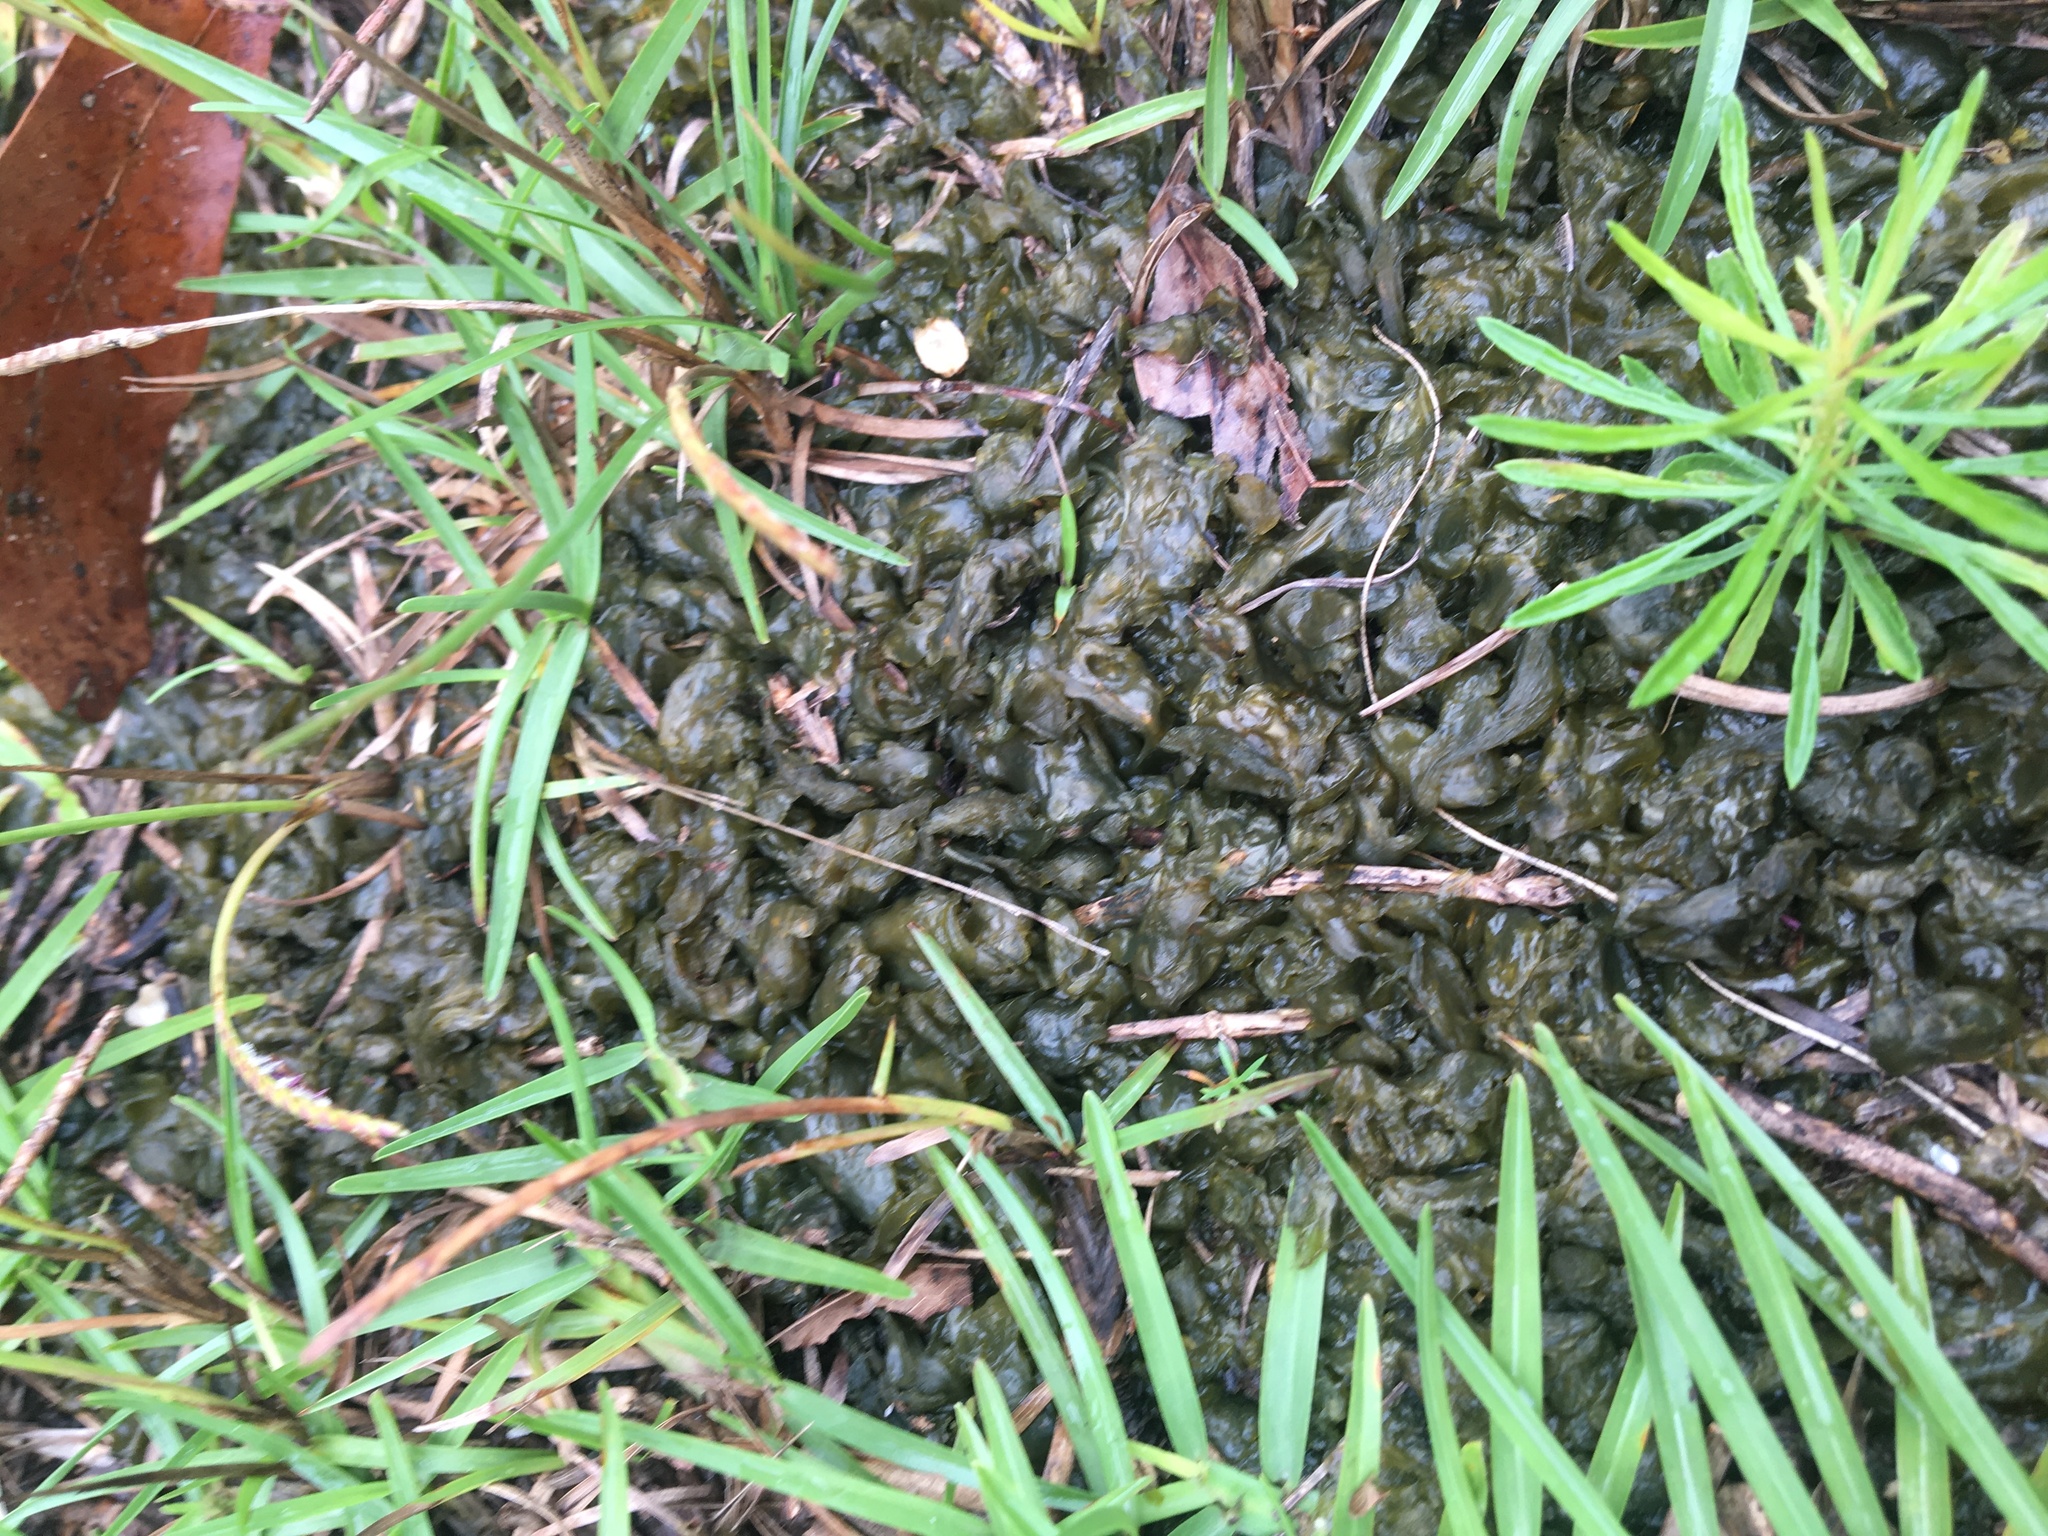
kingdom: Bacteria
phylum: Cyanobacteria
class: Cyanobacteriia
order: Cyanobacteriales
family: Nostocaceae
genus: Nostoc
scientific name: Nostoc commune
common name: Star jelly
